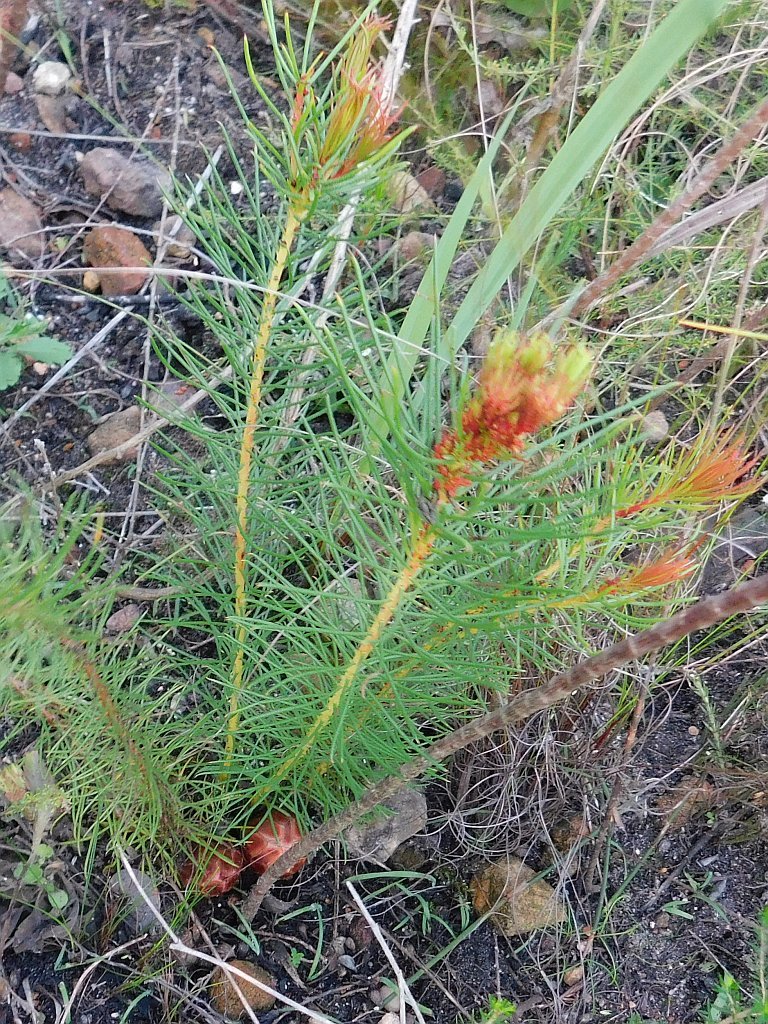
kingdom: Plantae
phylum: Tracheophyta
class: Magnoliopsida
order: Proteales
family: Proteaceae
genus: Protea
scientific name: Protea subulifolia
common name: Awl-leaf sugarbush
